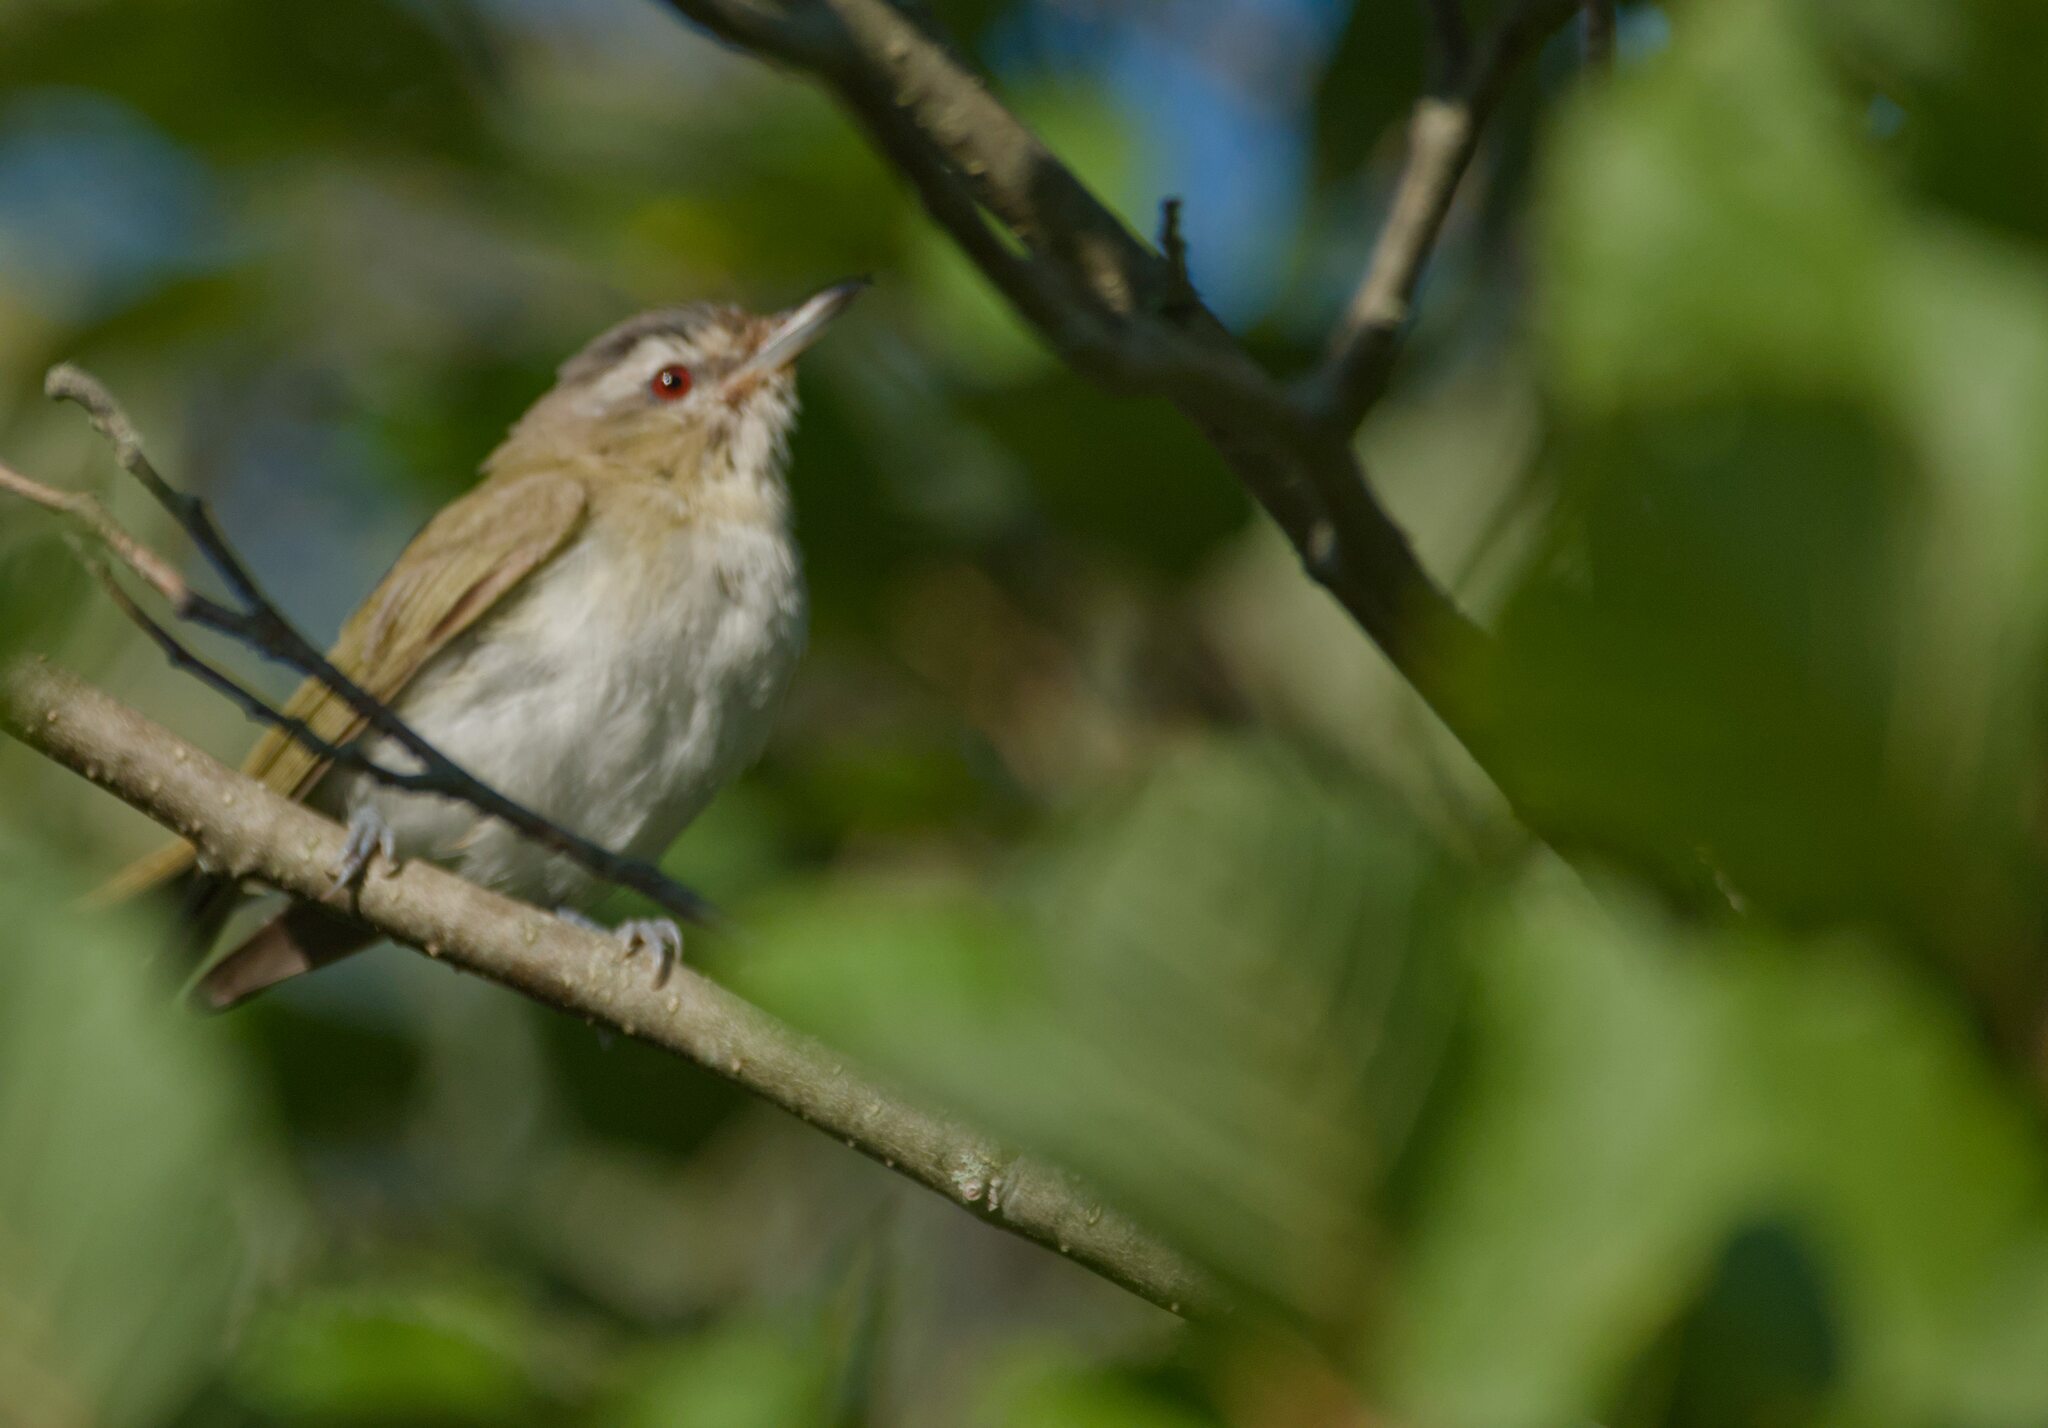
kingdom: Animalia
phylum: Chordata
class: Aves
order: Passeriformes
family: Vireonidae
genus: Vireo
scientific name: Vireo olivaceus
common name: Red-eyed vireo
